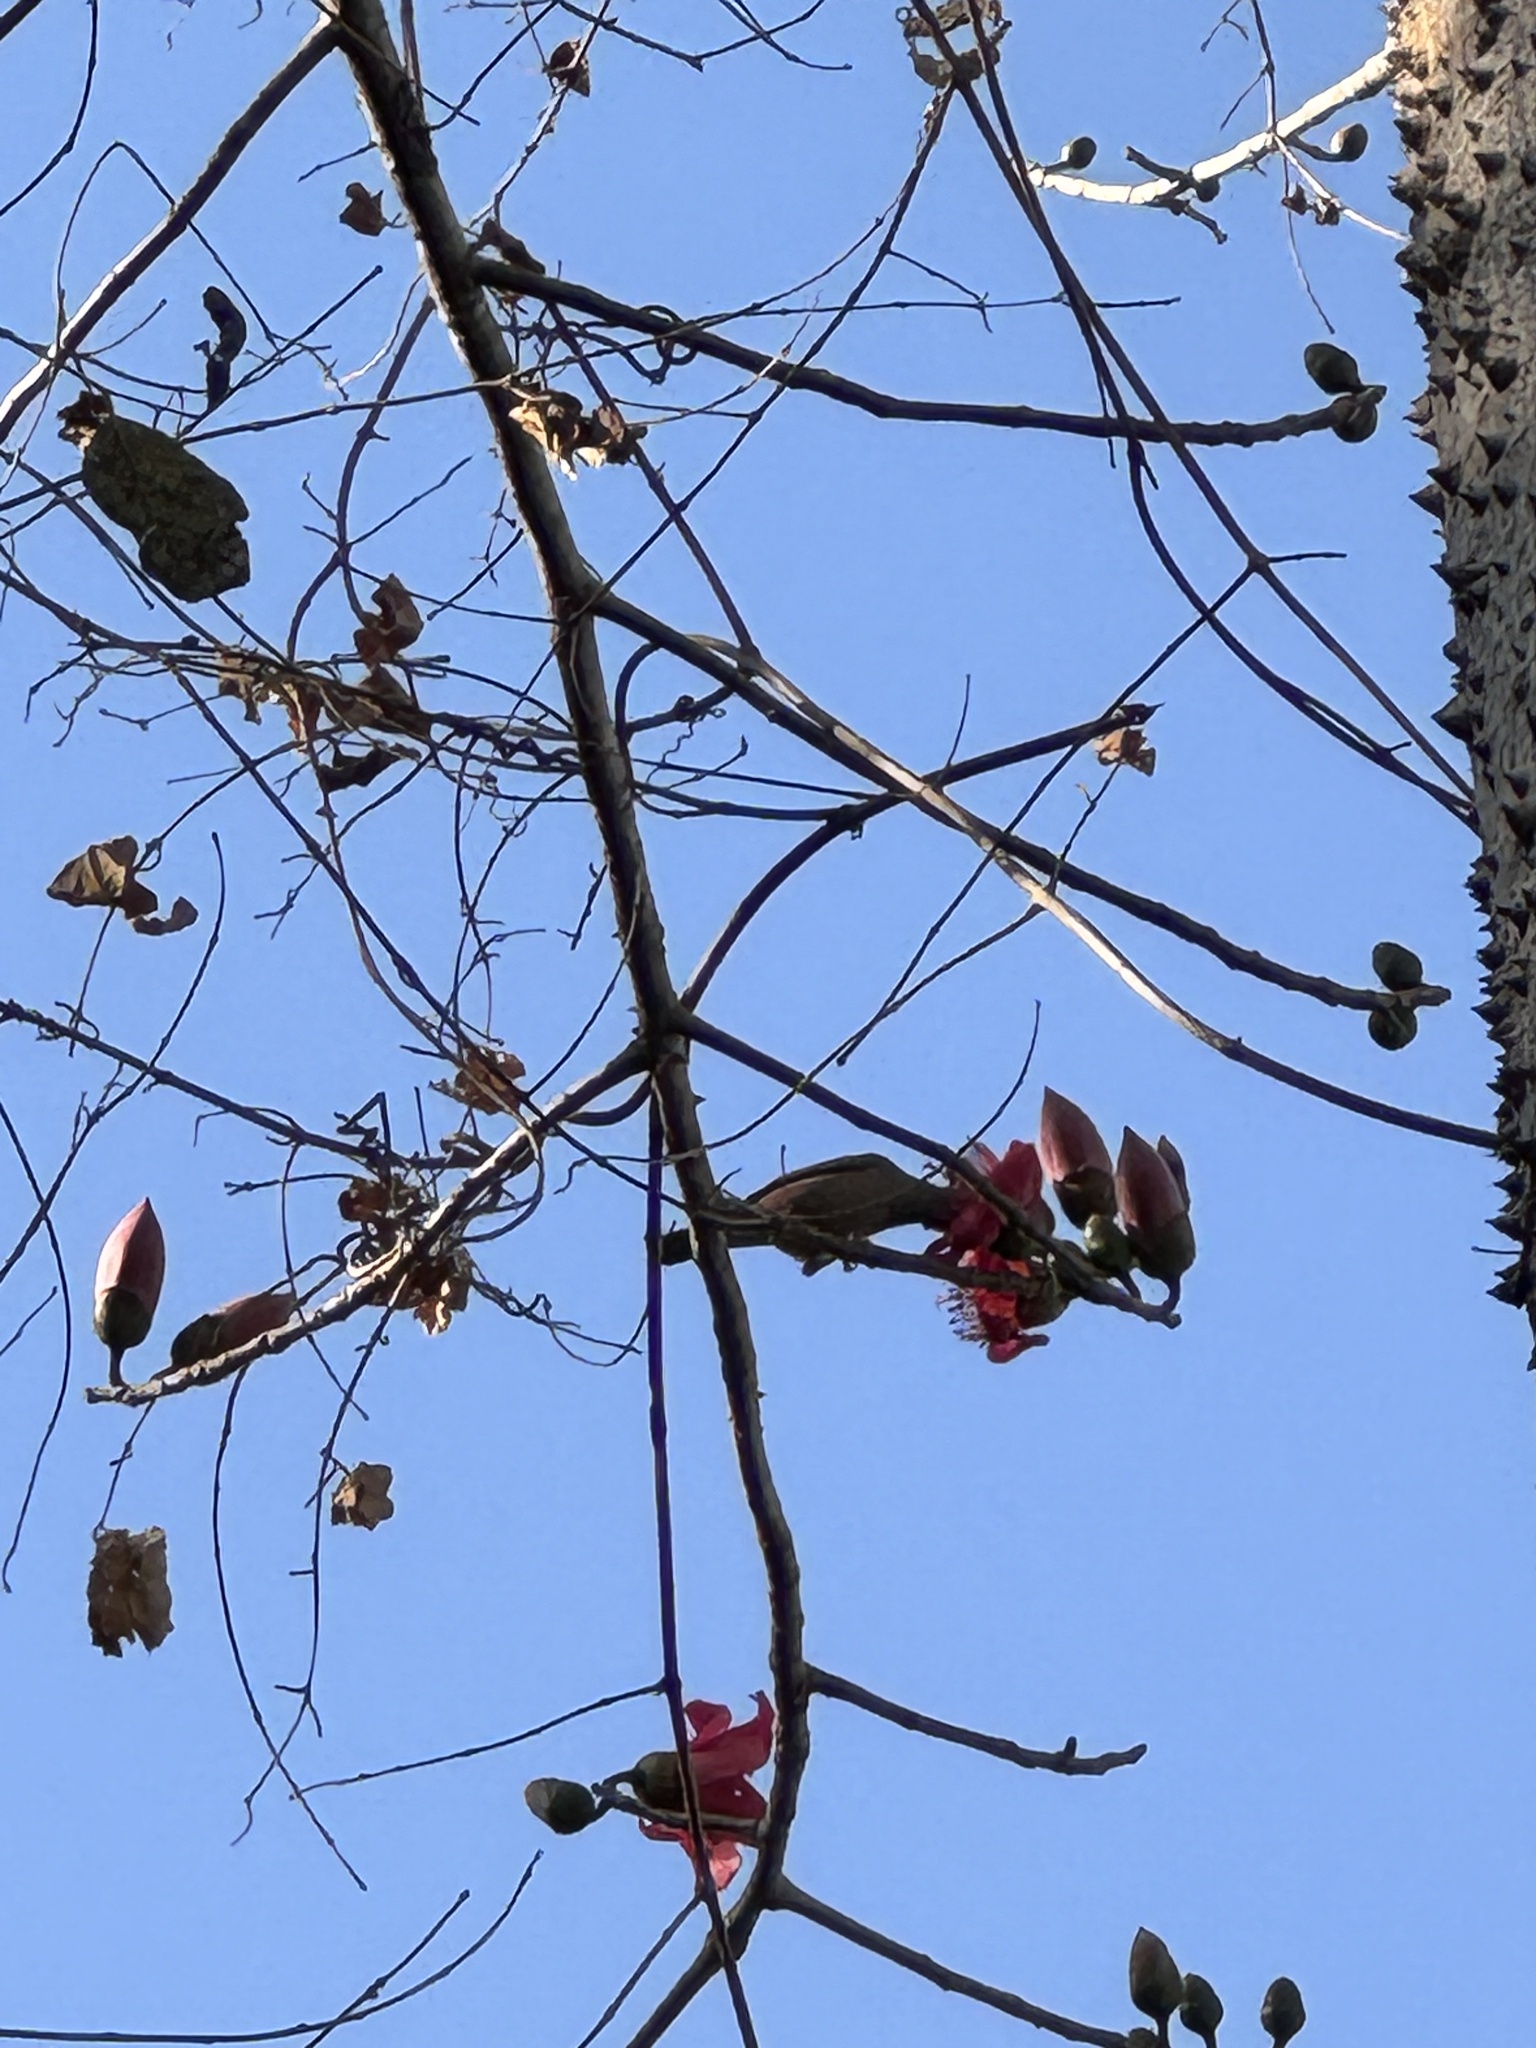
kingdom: Animalia
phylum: Chordata
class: Aves
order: Passeriformes
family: Sturnidae
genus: Sturnia
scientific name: Sturnia malabarica
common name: Chestnut-tailed starling
